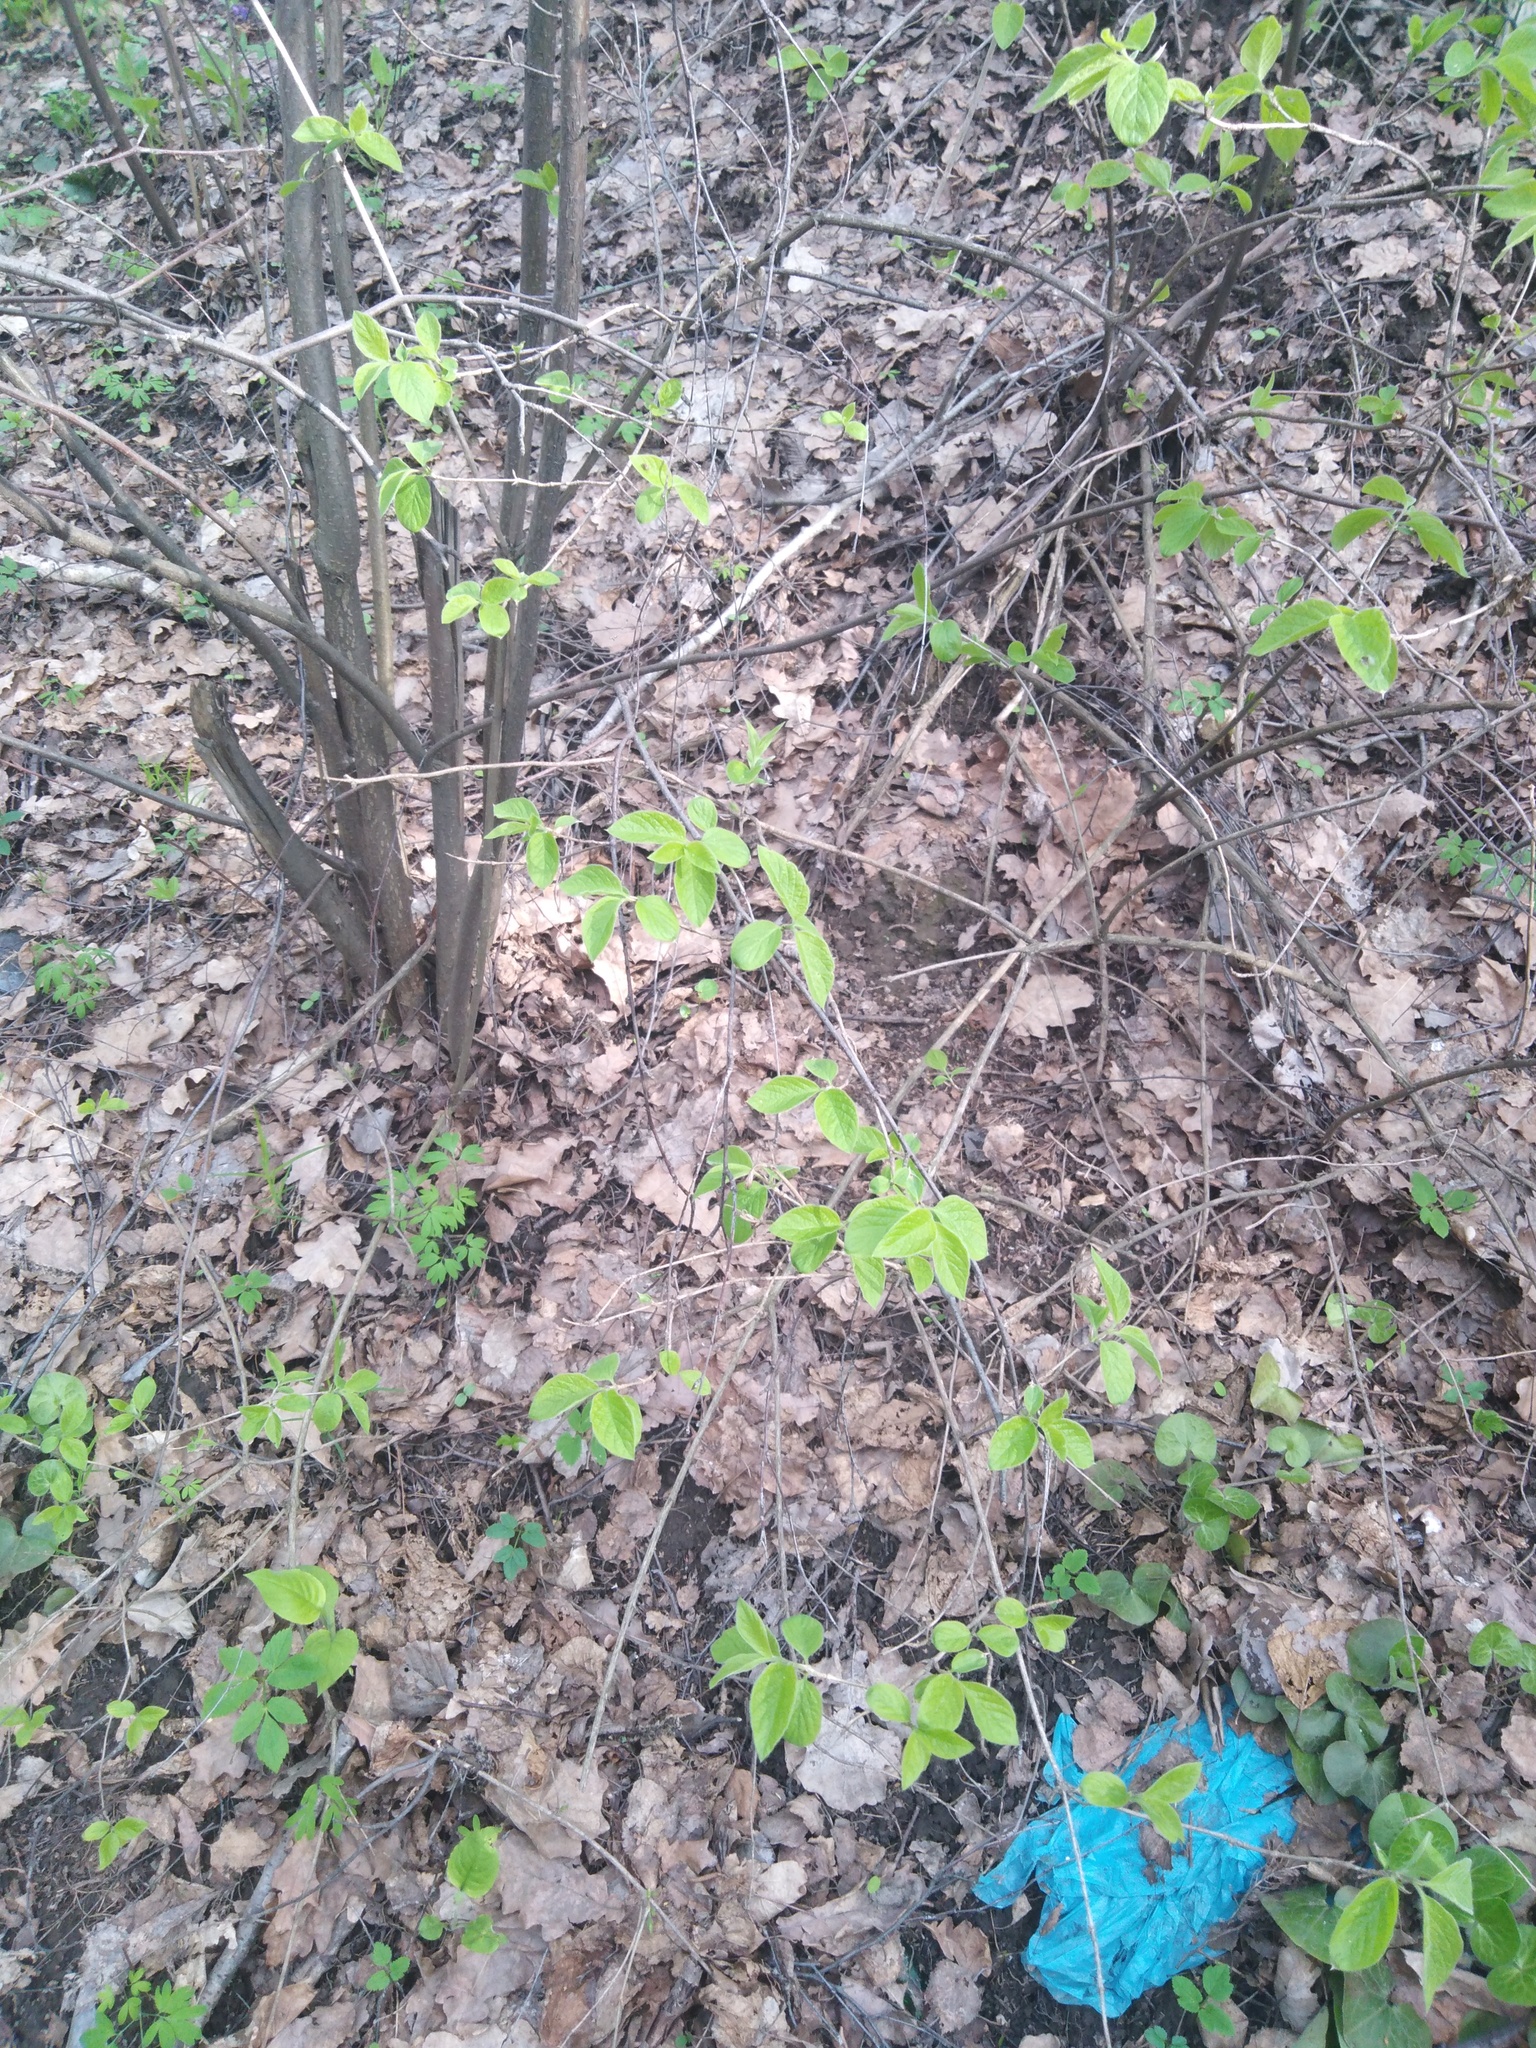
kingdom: Plantae
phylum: Tracheophyta
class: Magnoliopsida
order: Rosales
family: Rosaceae
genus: Prunus
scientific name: Prunus padus
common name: Bird cherry
